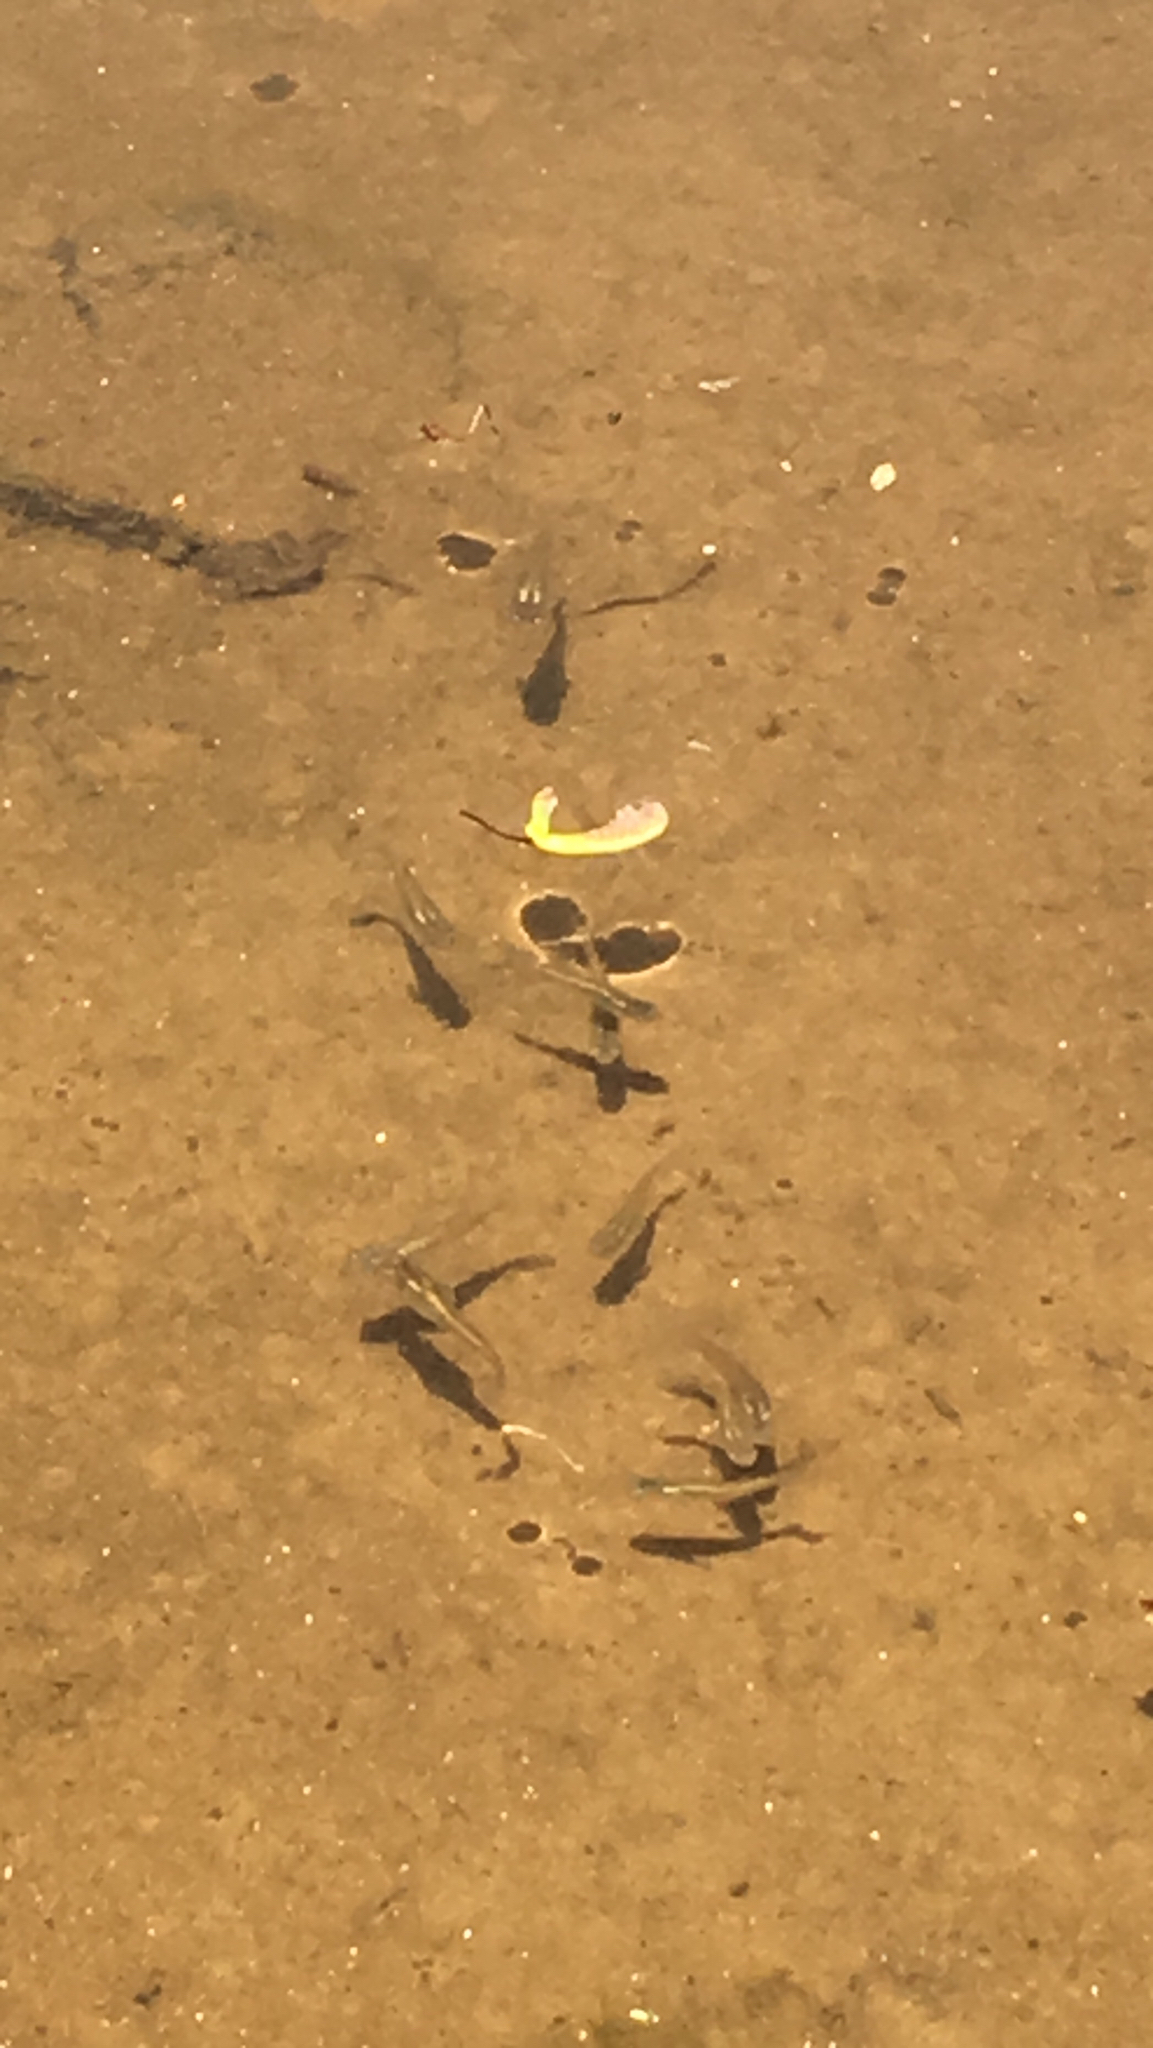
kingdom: Animalia
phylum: Chordata
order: Cyprinodontiformes
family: Poeciliidae
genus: Gambusia
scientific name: Gambusia holbrooki
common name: Eastern mosquitofish
